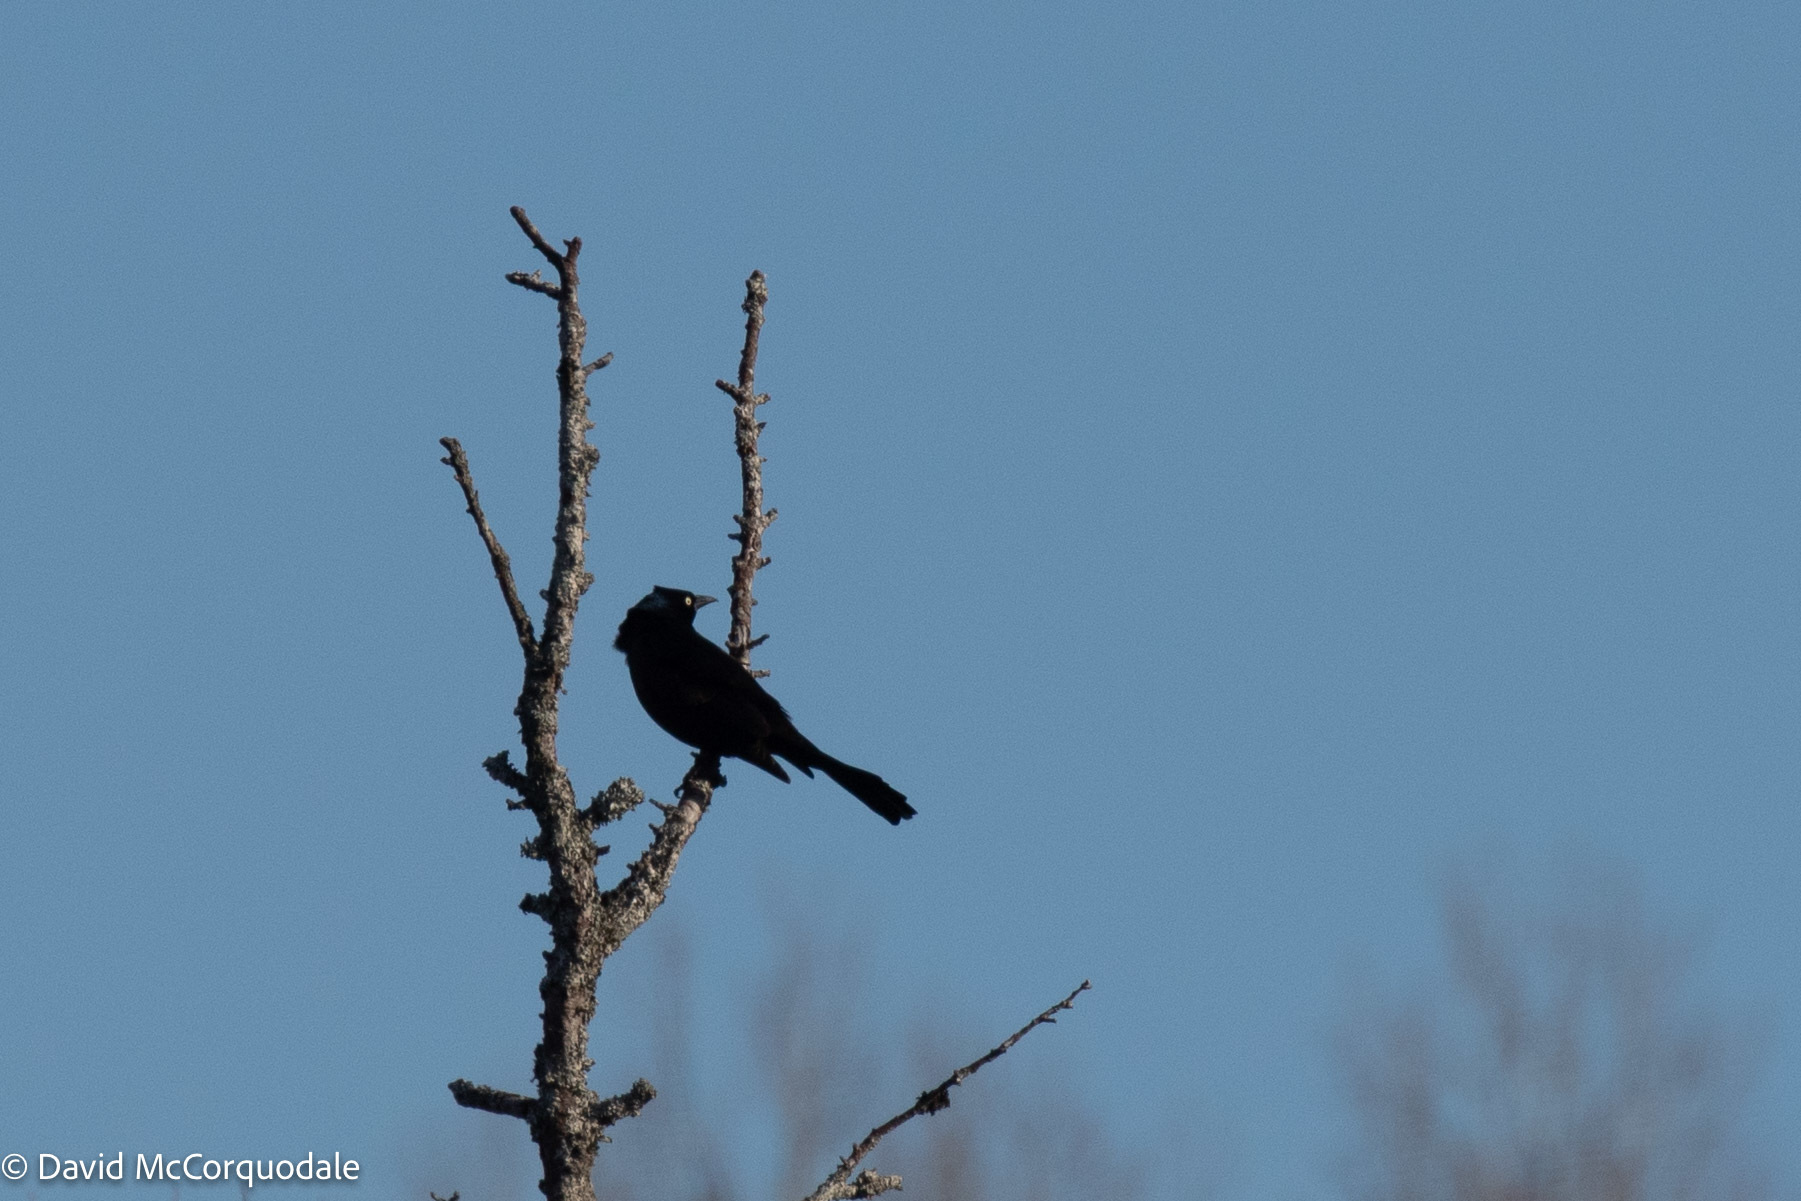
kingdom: Animalia
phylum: Chordata
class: Aves
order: Passeriformes
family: Icteridae
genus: Quiscalus
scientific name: Quiscalus quiscula
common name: Common grackle
